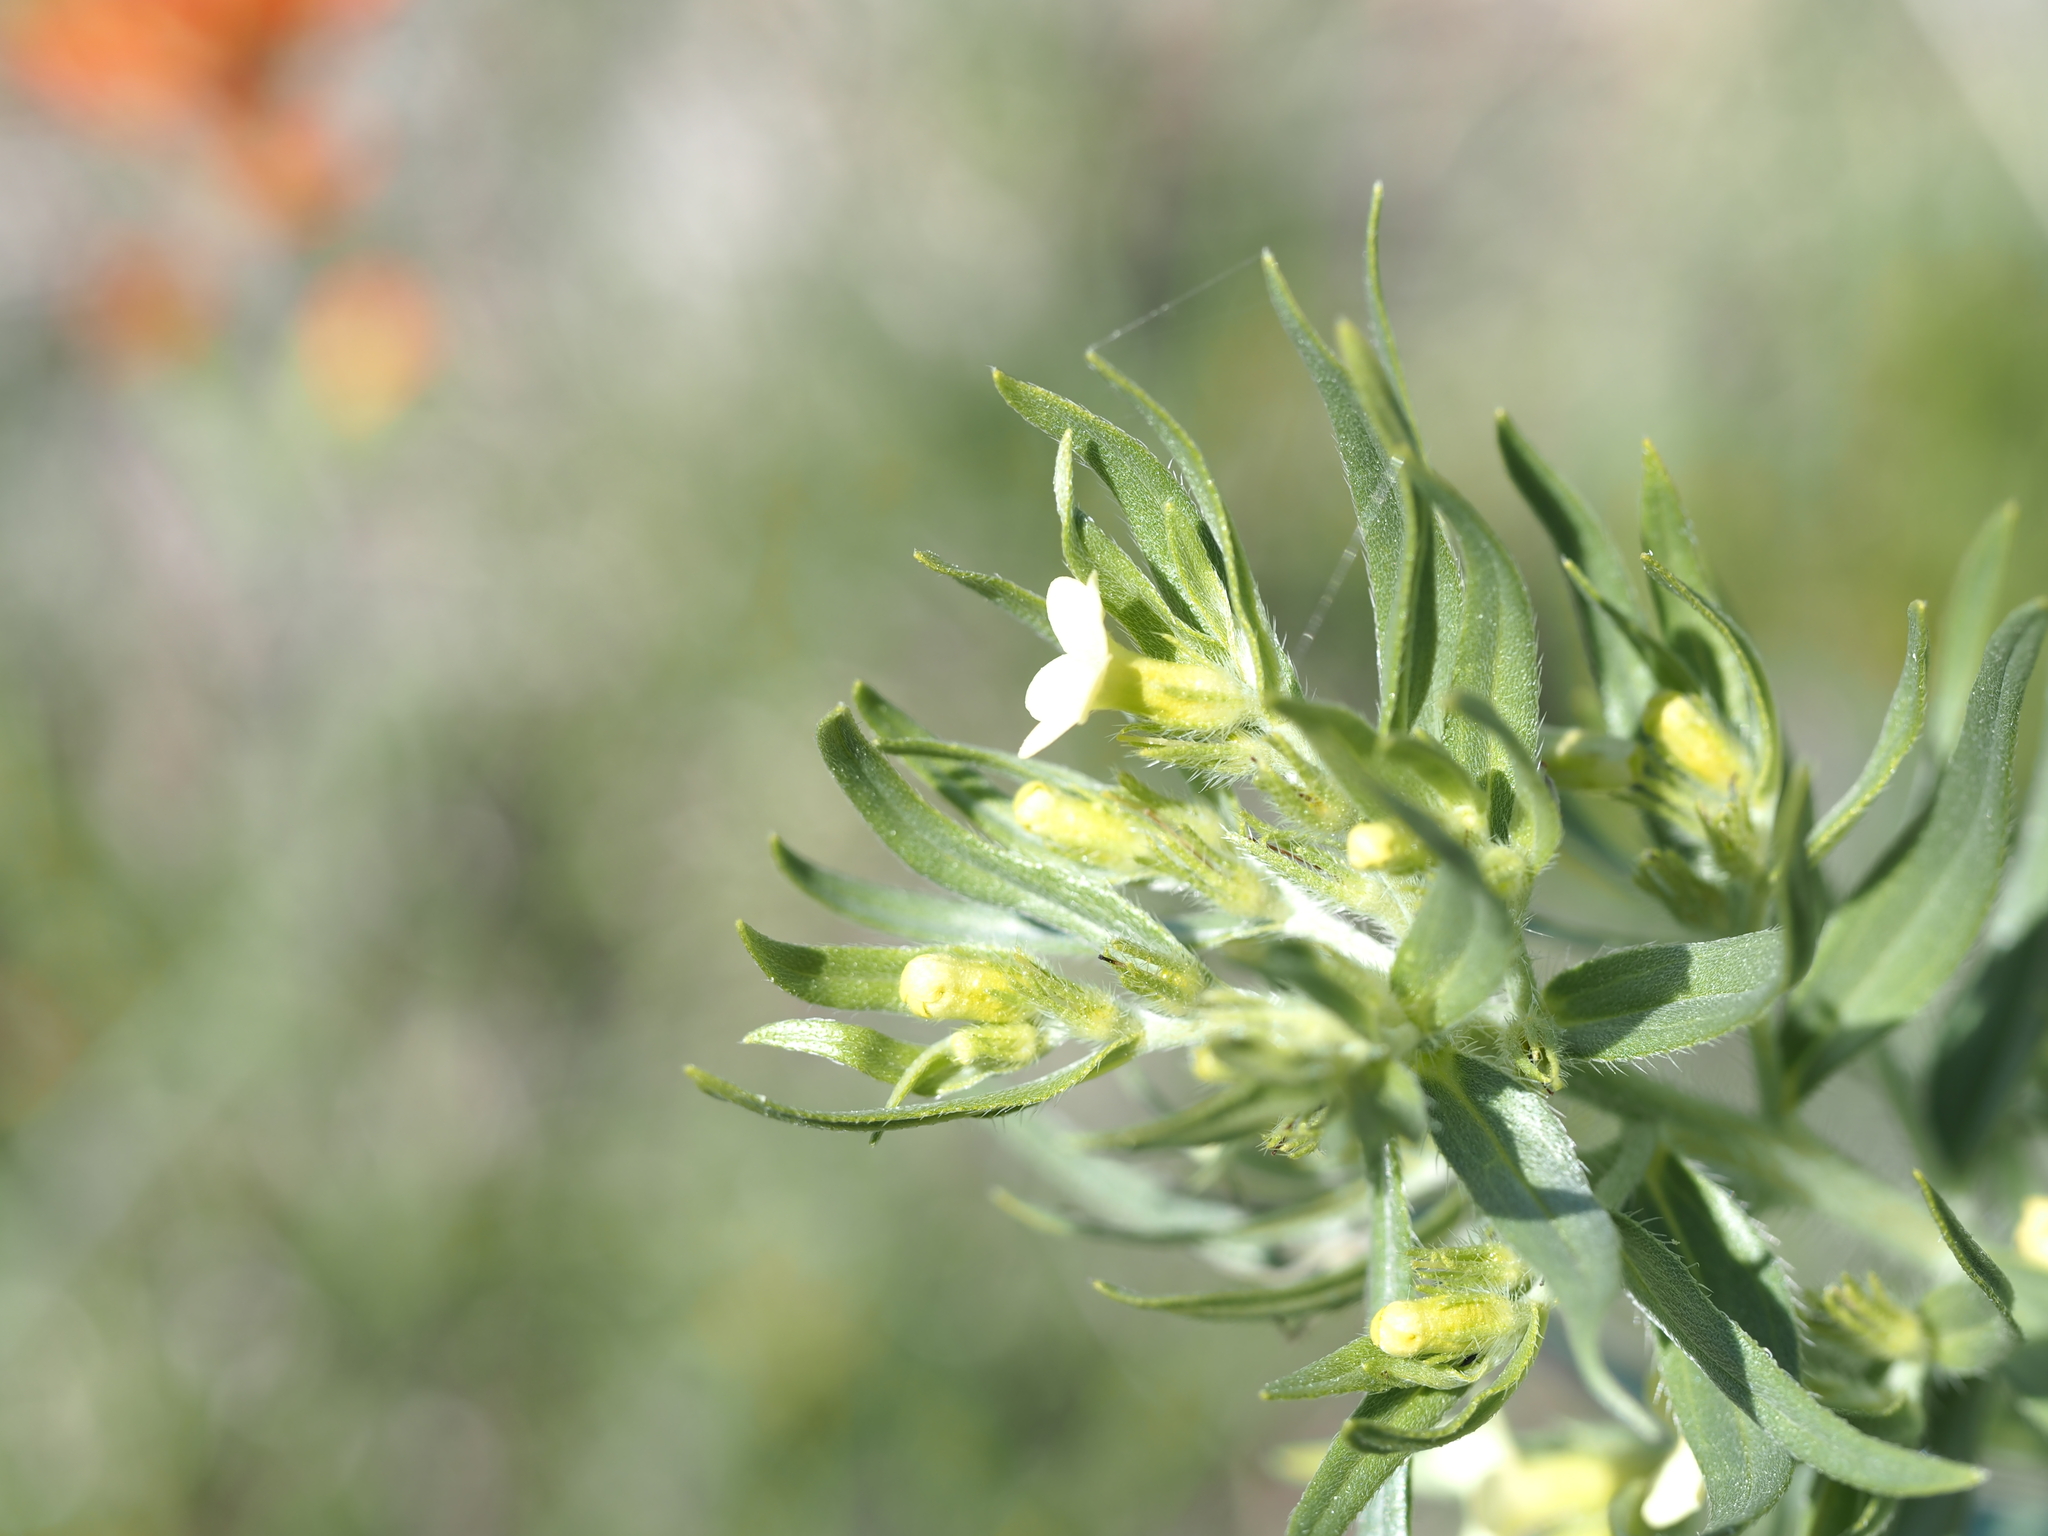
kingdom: Plantae
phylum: Tracheophyta
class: Magnoliopsida
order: Boraginales
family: Boraginaceae
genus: Lithospermum
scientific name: Lithospermum ruderale
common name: Western gromwell
